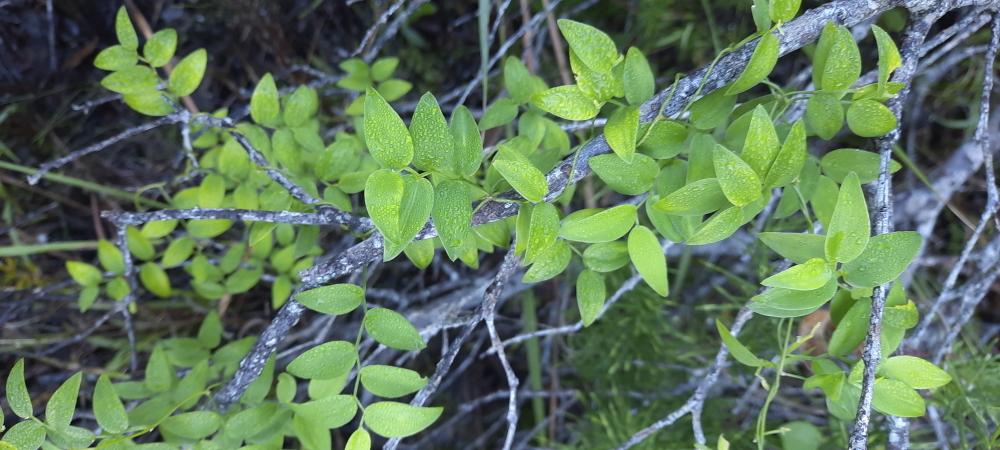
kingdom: Plantae
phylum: Tracheophyta
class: Liliopsida
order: Asparagales
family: Asparagaceae
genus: Asparagus
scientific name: Asparagus asparagoides
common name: African asparagus fern
